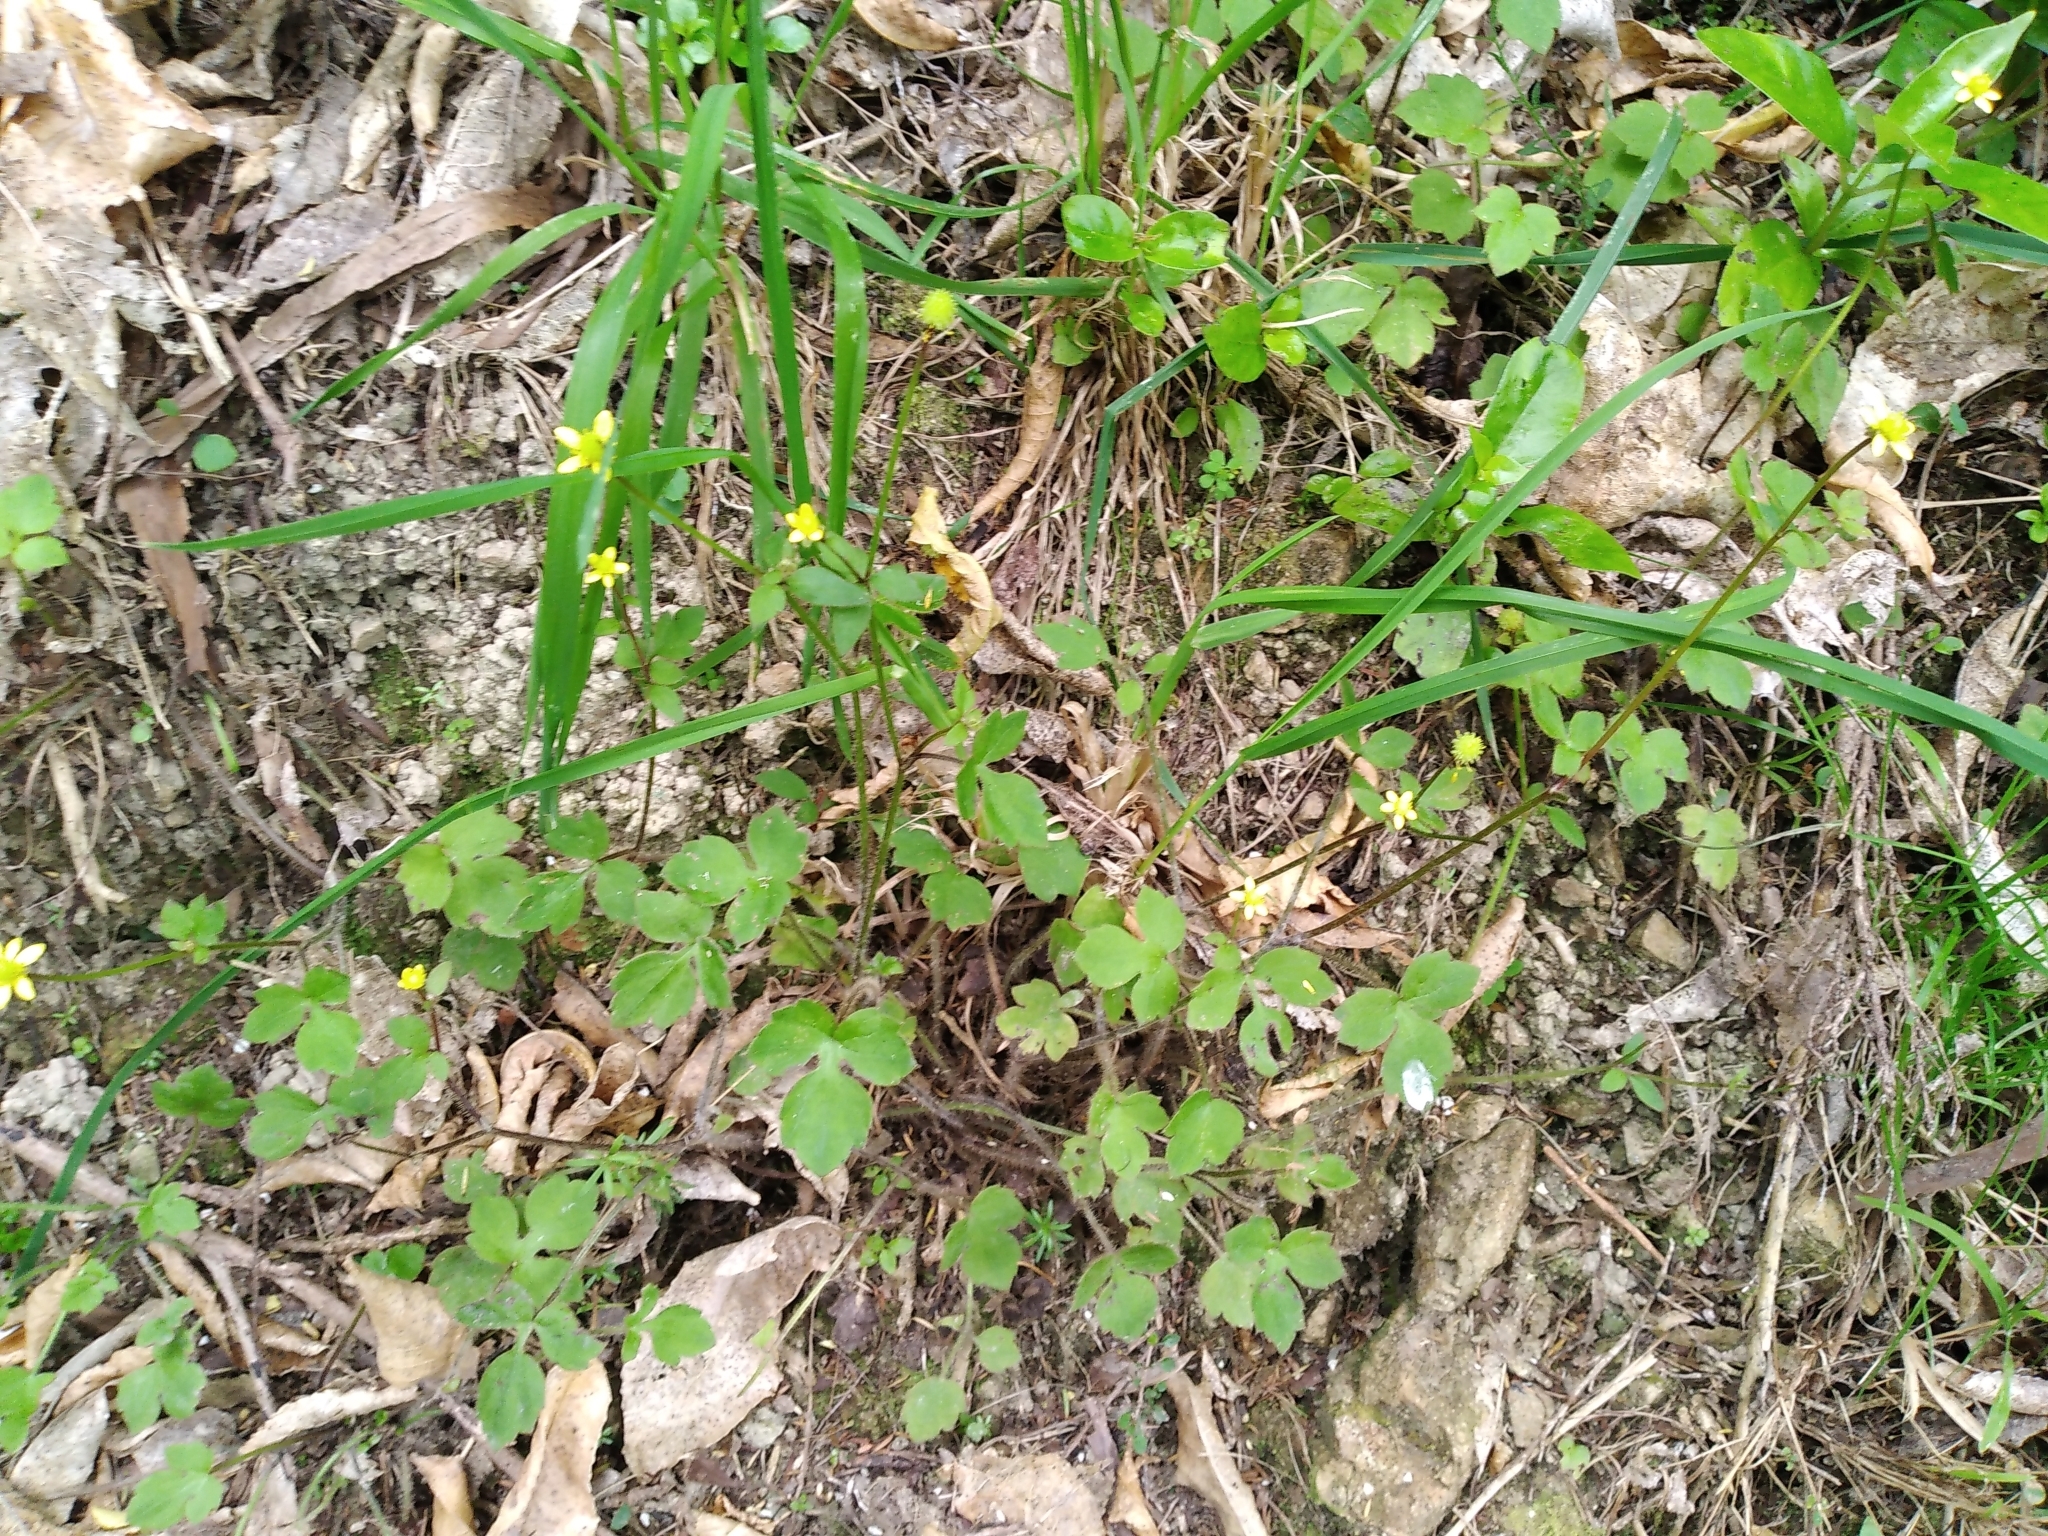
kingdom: Plantae
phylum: Tracheophyta
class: Magnoliopsida
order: Ranunculales
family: Ranunculaceae
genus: Ranunculus
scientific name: Ranunculus reflexus
